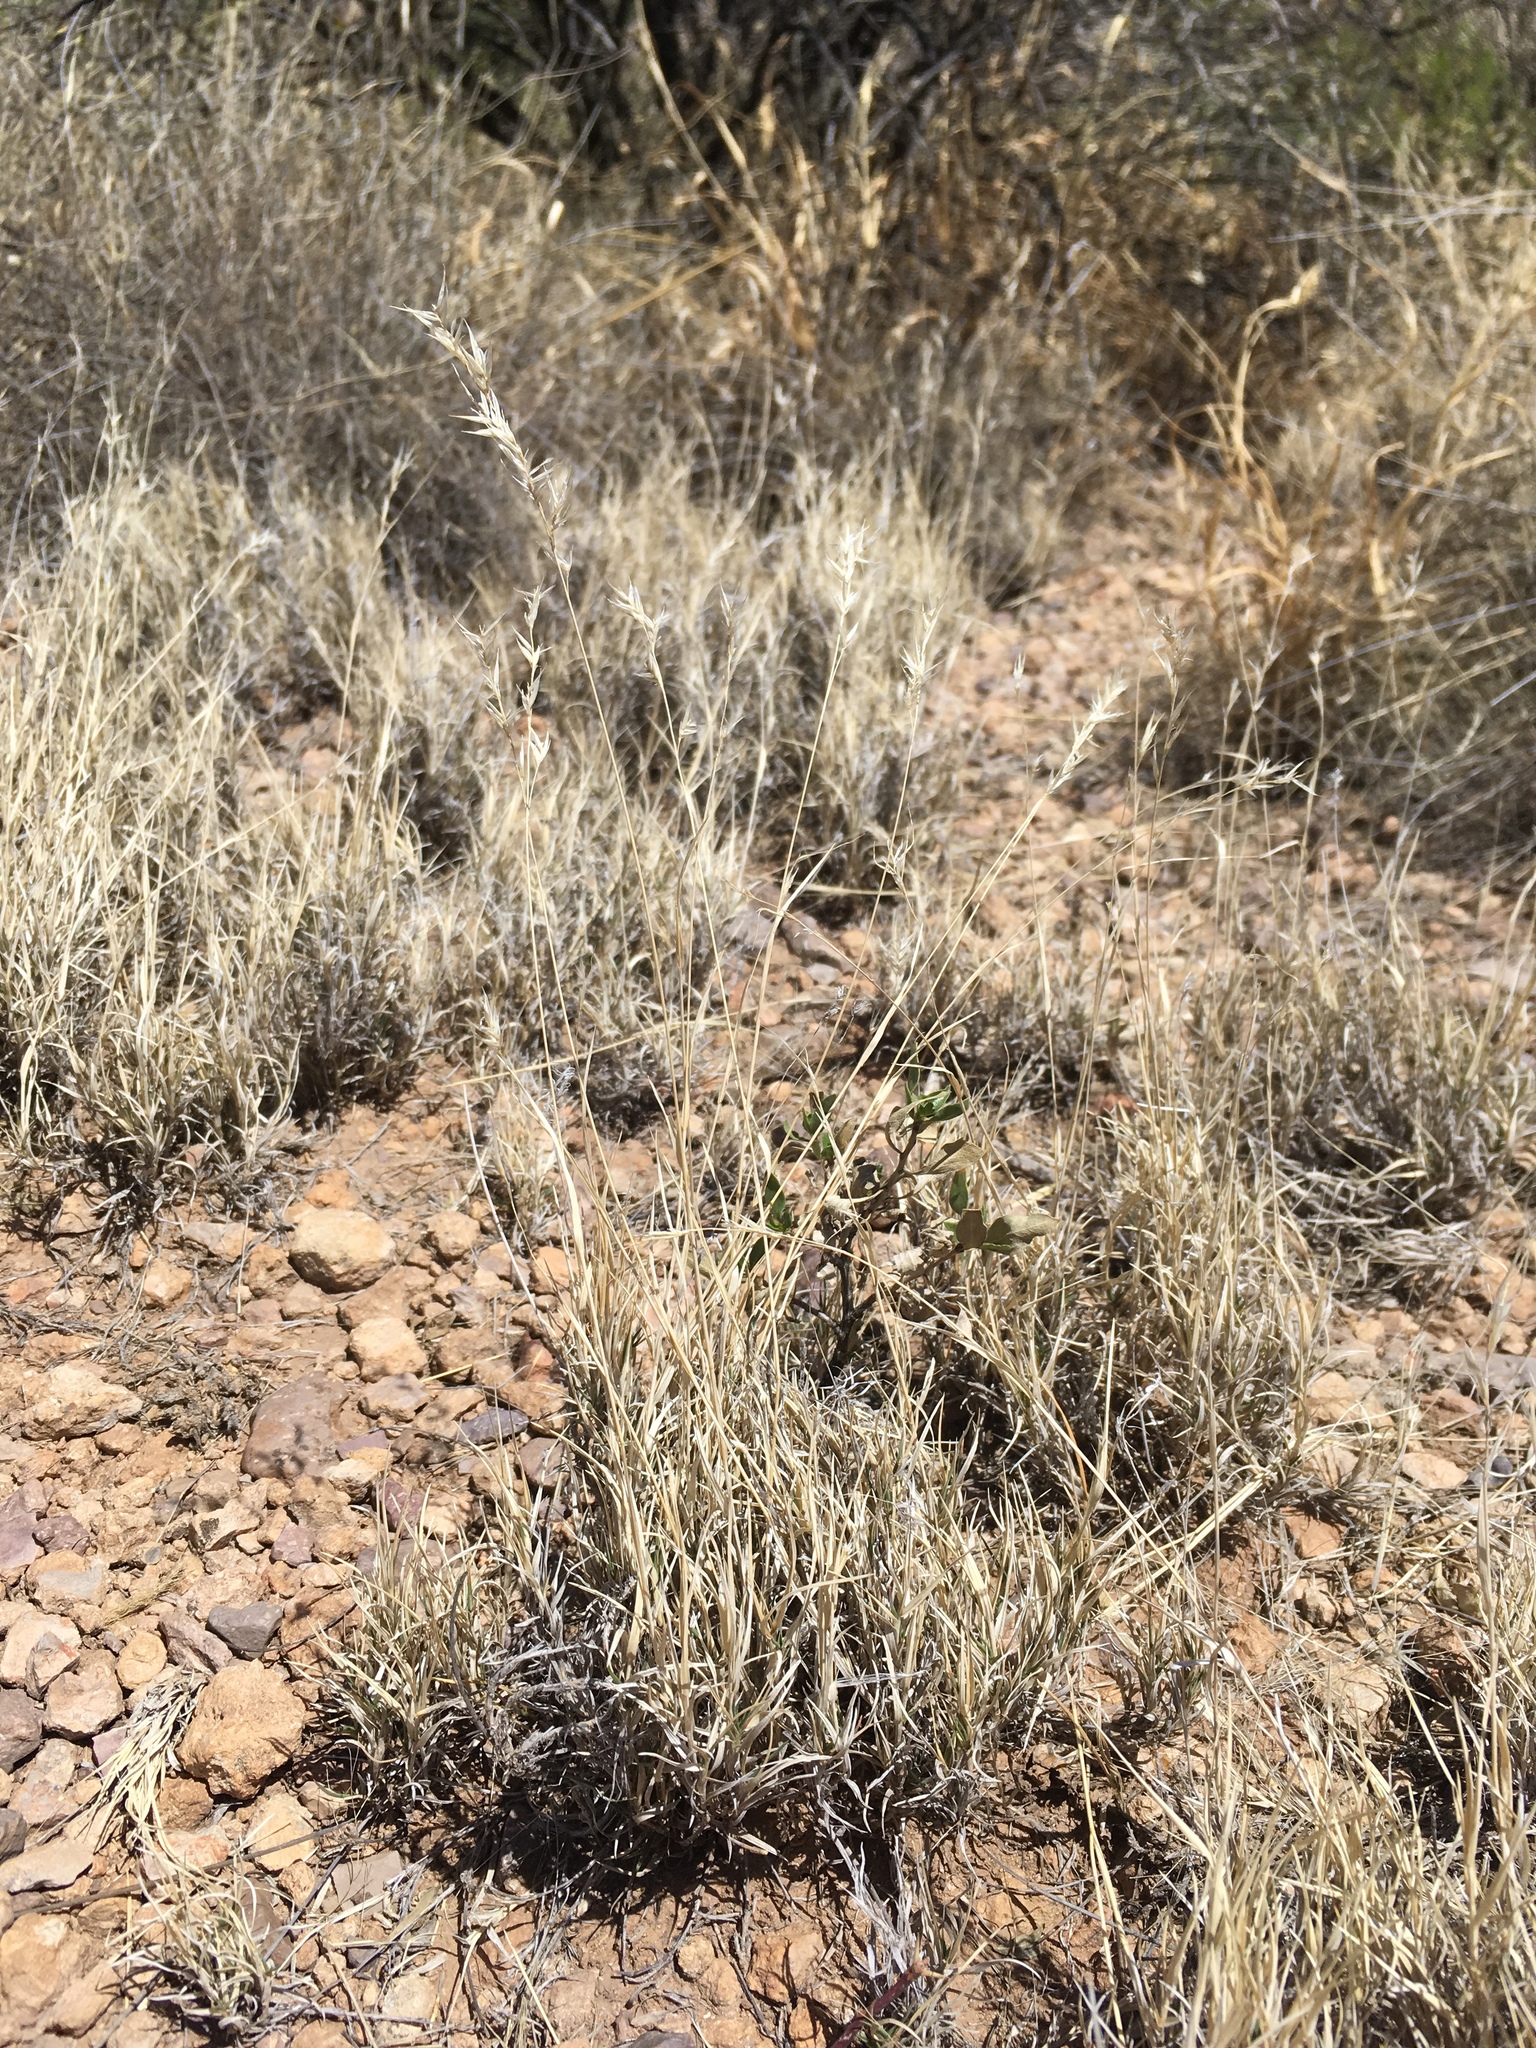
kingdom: Plantae
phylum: Tracheophyta
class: Liliopsida
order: Poales
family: Poaceae
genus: Scleropogon
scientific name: Scleropogon brevifolius
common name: Burro grass
